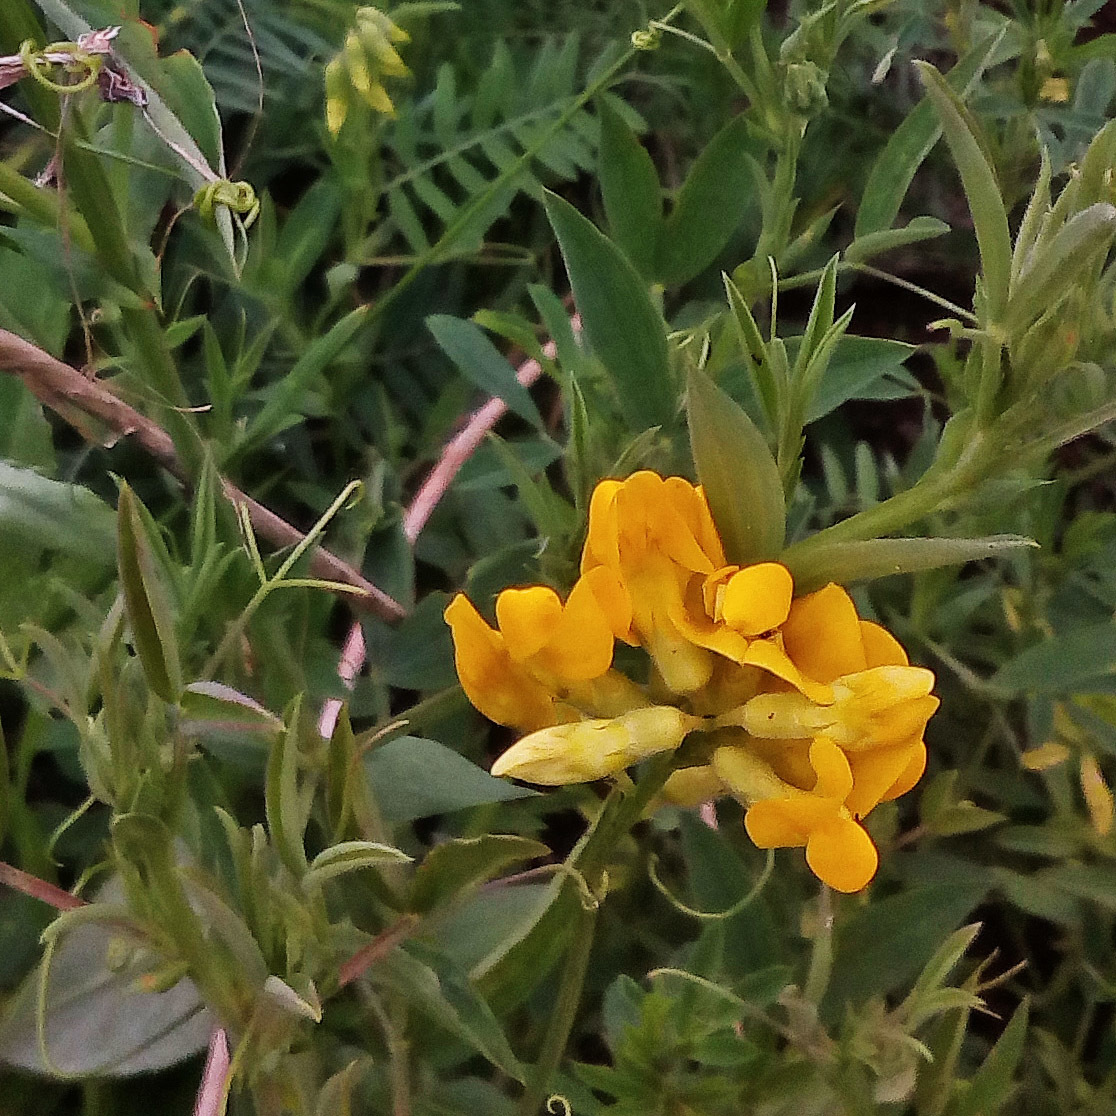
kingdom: Plantae
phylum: Tracheophyta
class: Magnoliopsida
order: Fabales
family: Fabaceae
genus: Medicago
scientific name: Medicago falcata
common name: Sickle medick
